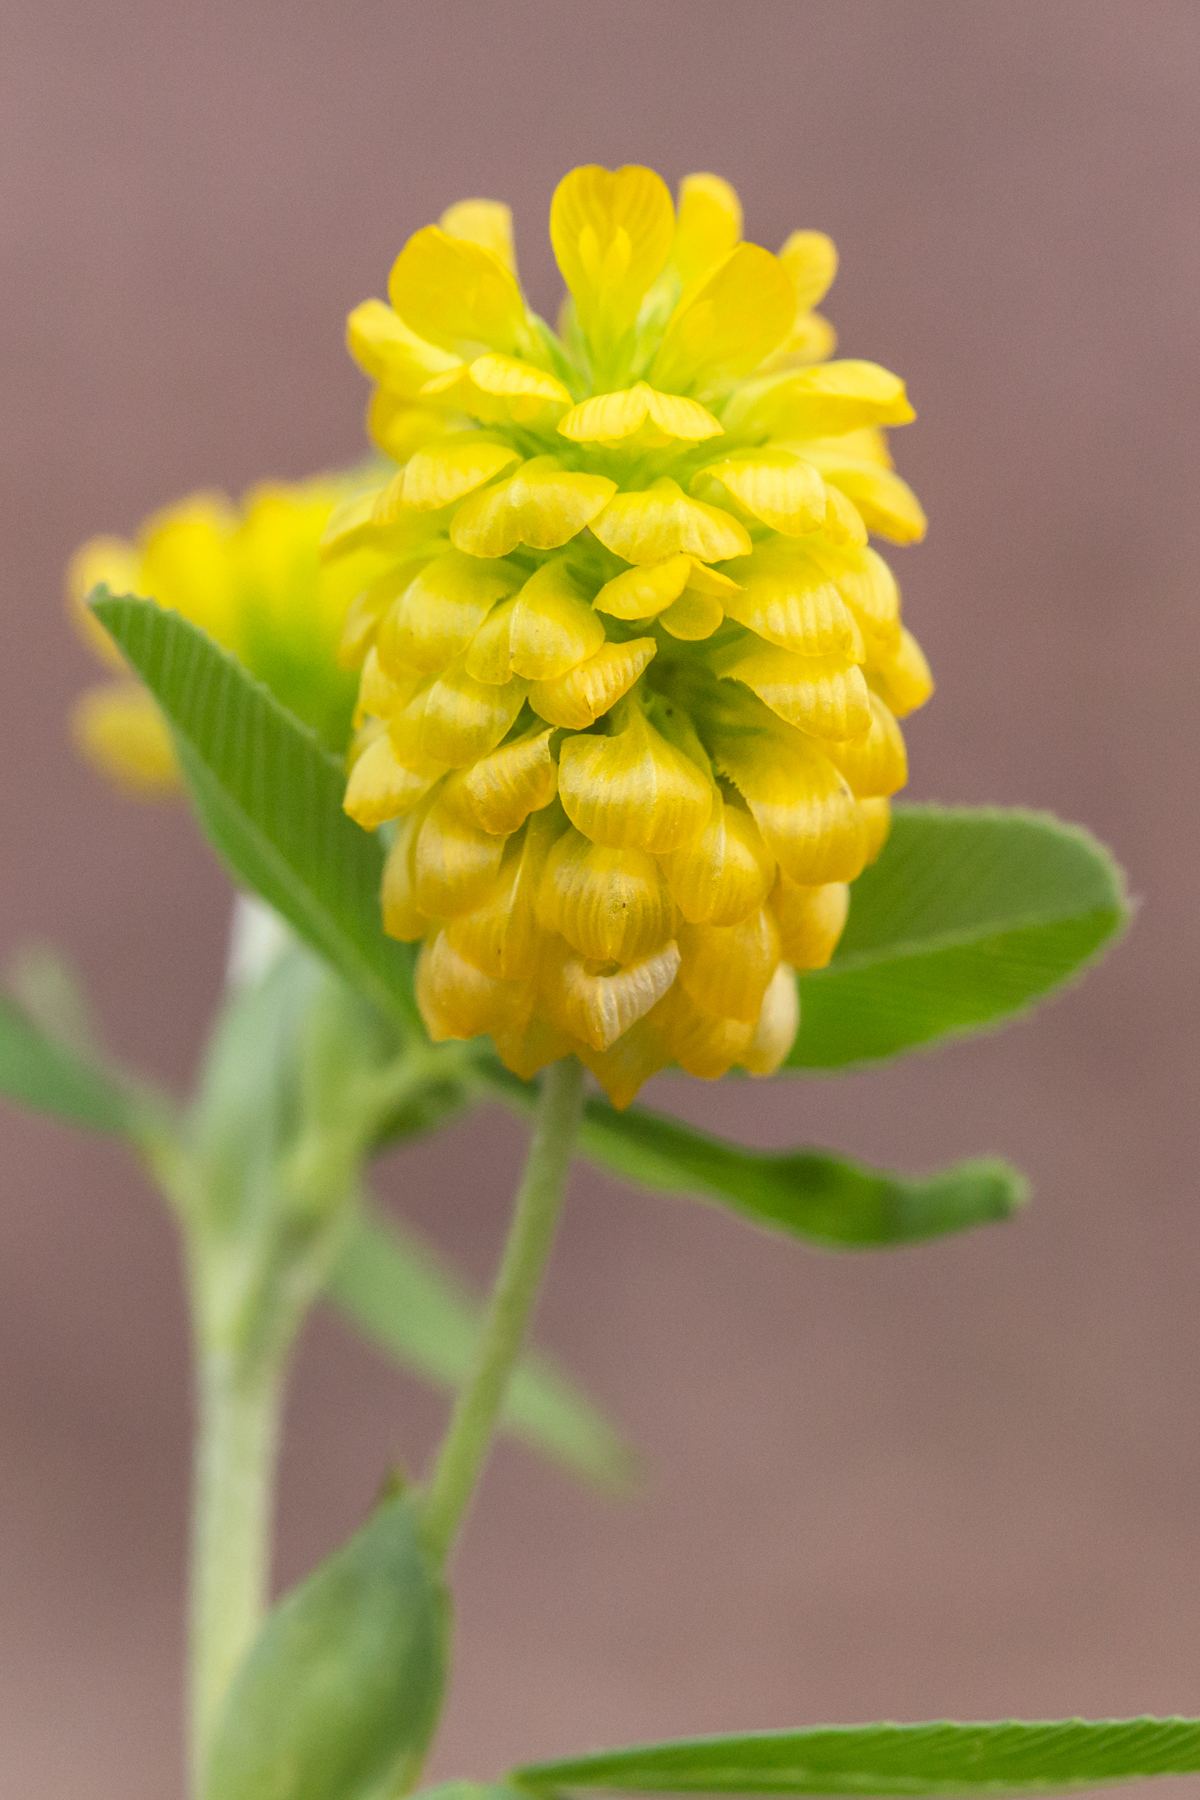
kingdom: Plantae
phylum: Tracheophyta
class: Magnoliopsida
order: Fabales
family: Fabaceae
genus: Trifolium
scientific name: Trifolium aureum
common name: Golden clover
